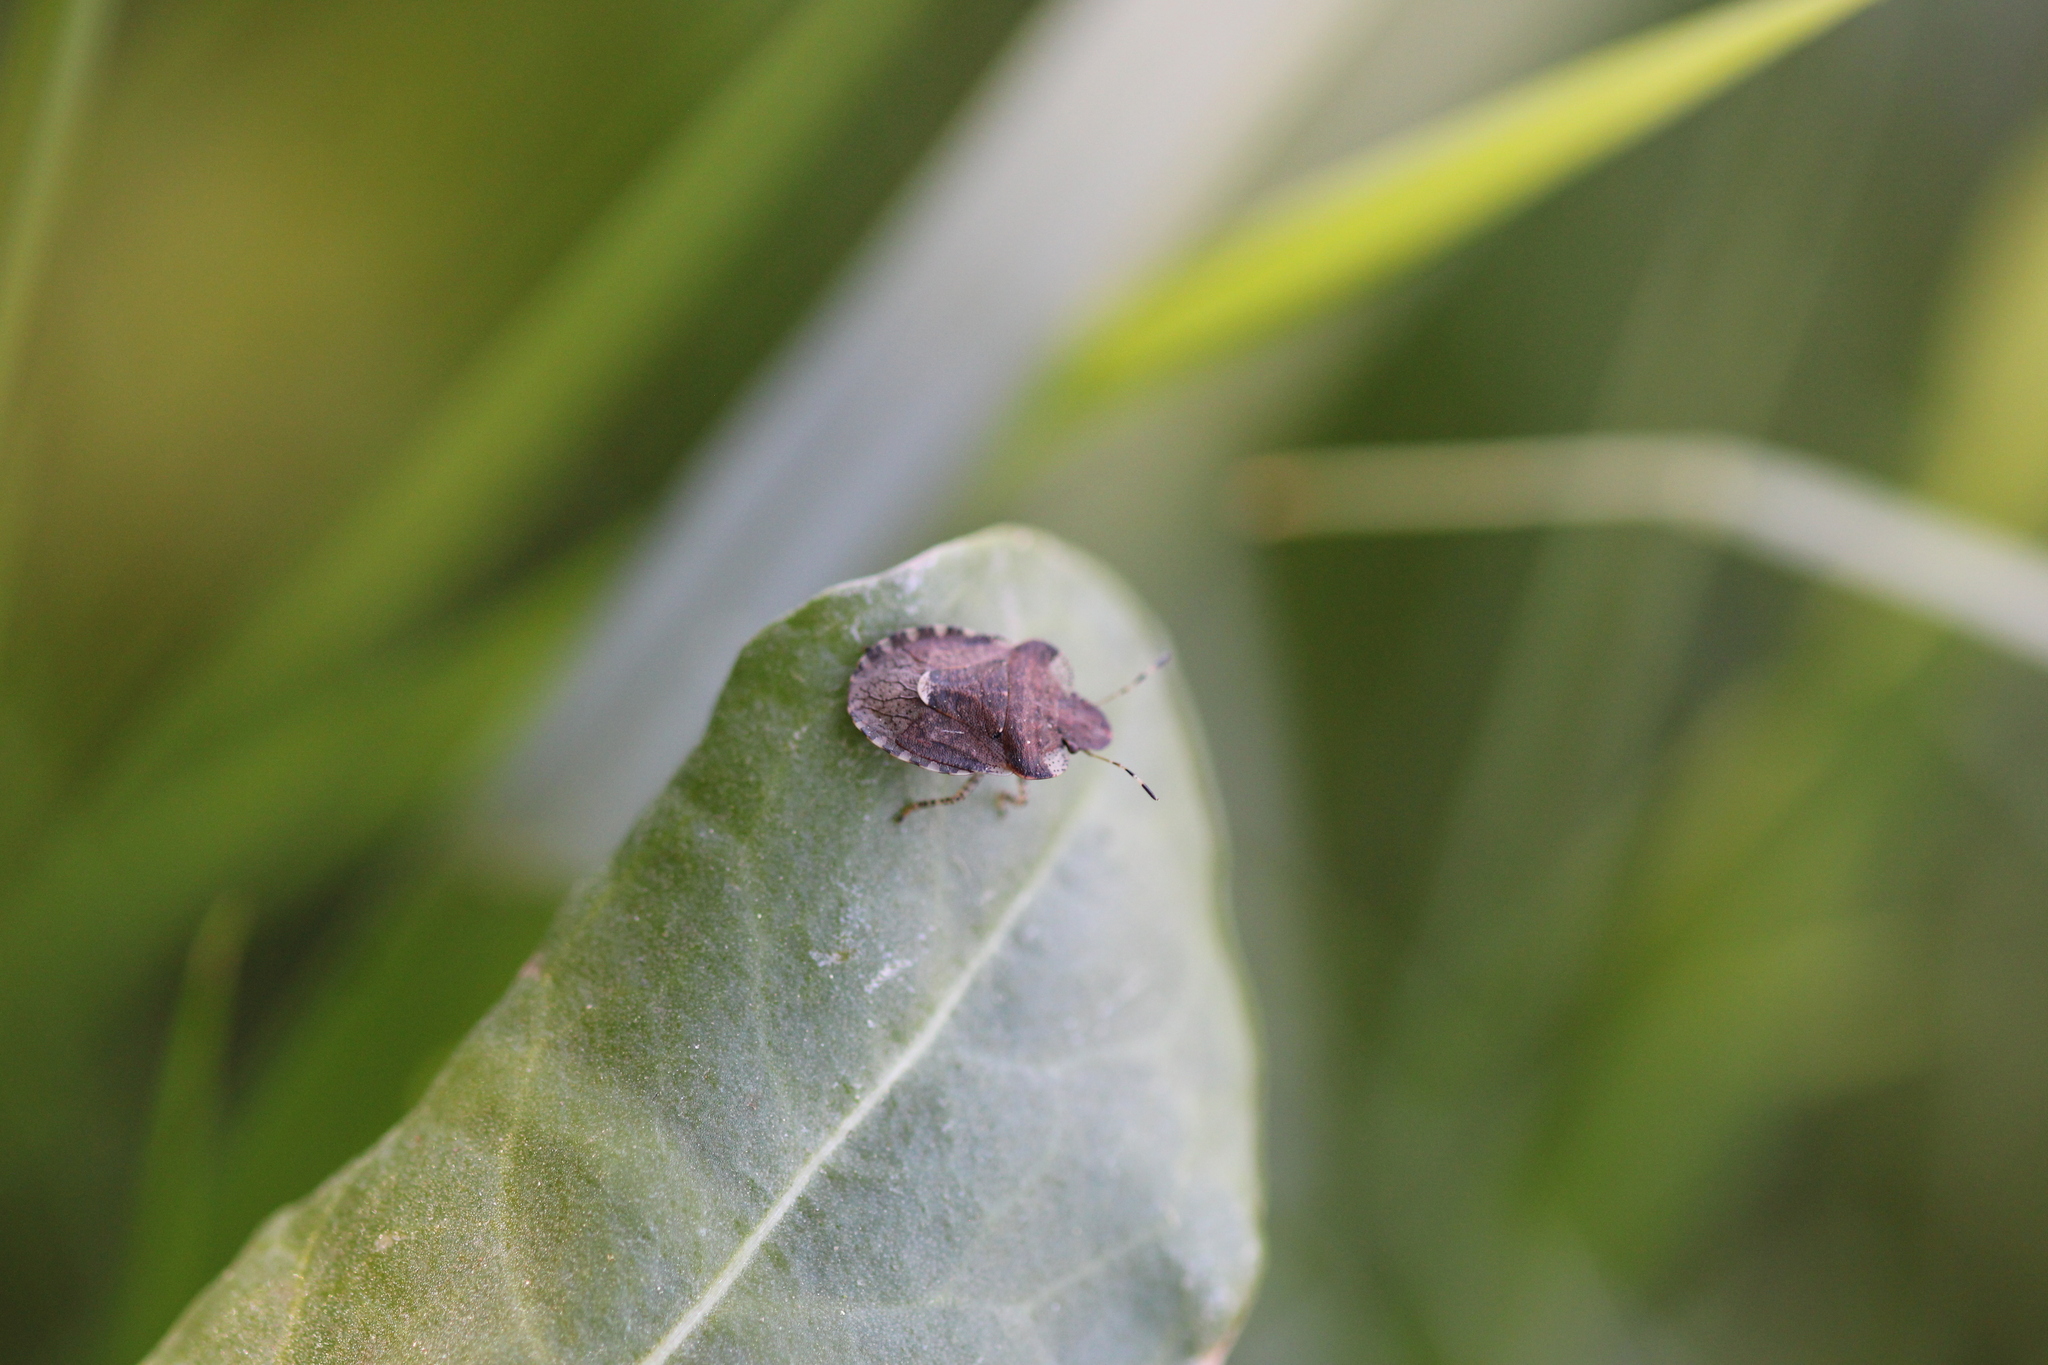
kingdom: Animalia
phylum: Arthropoda
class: Insecta
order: Hemiptera
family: Pentatomidae
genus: Dyroderes
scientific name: Dyroderes umbraculatus
